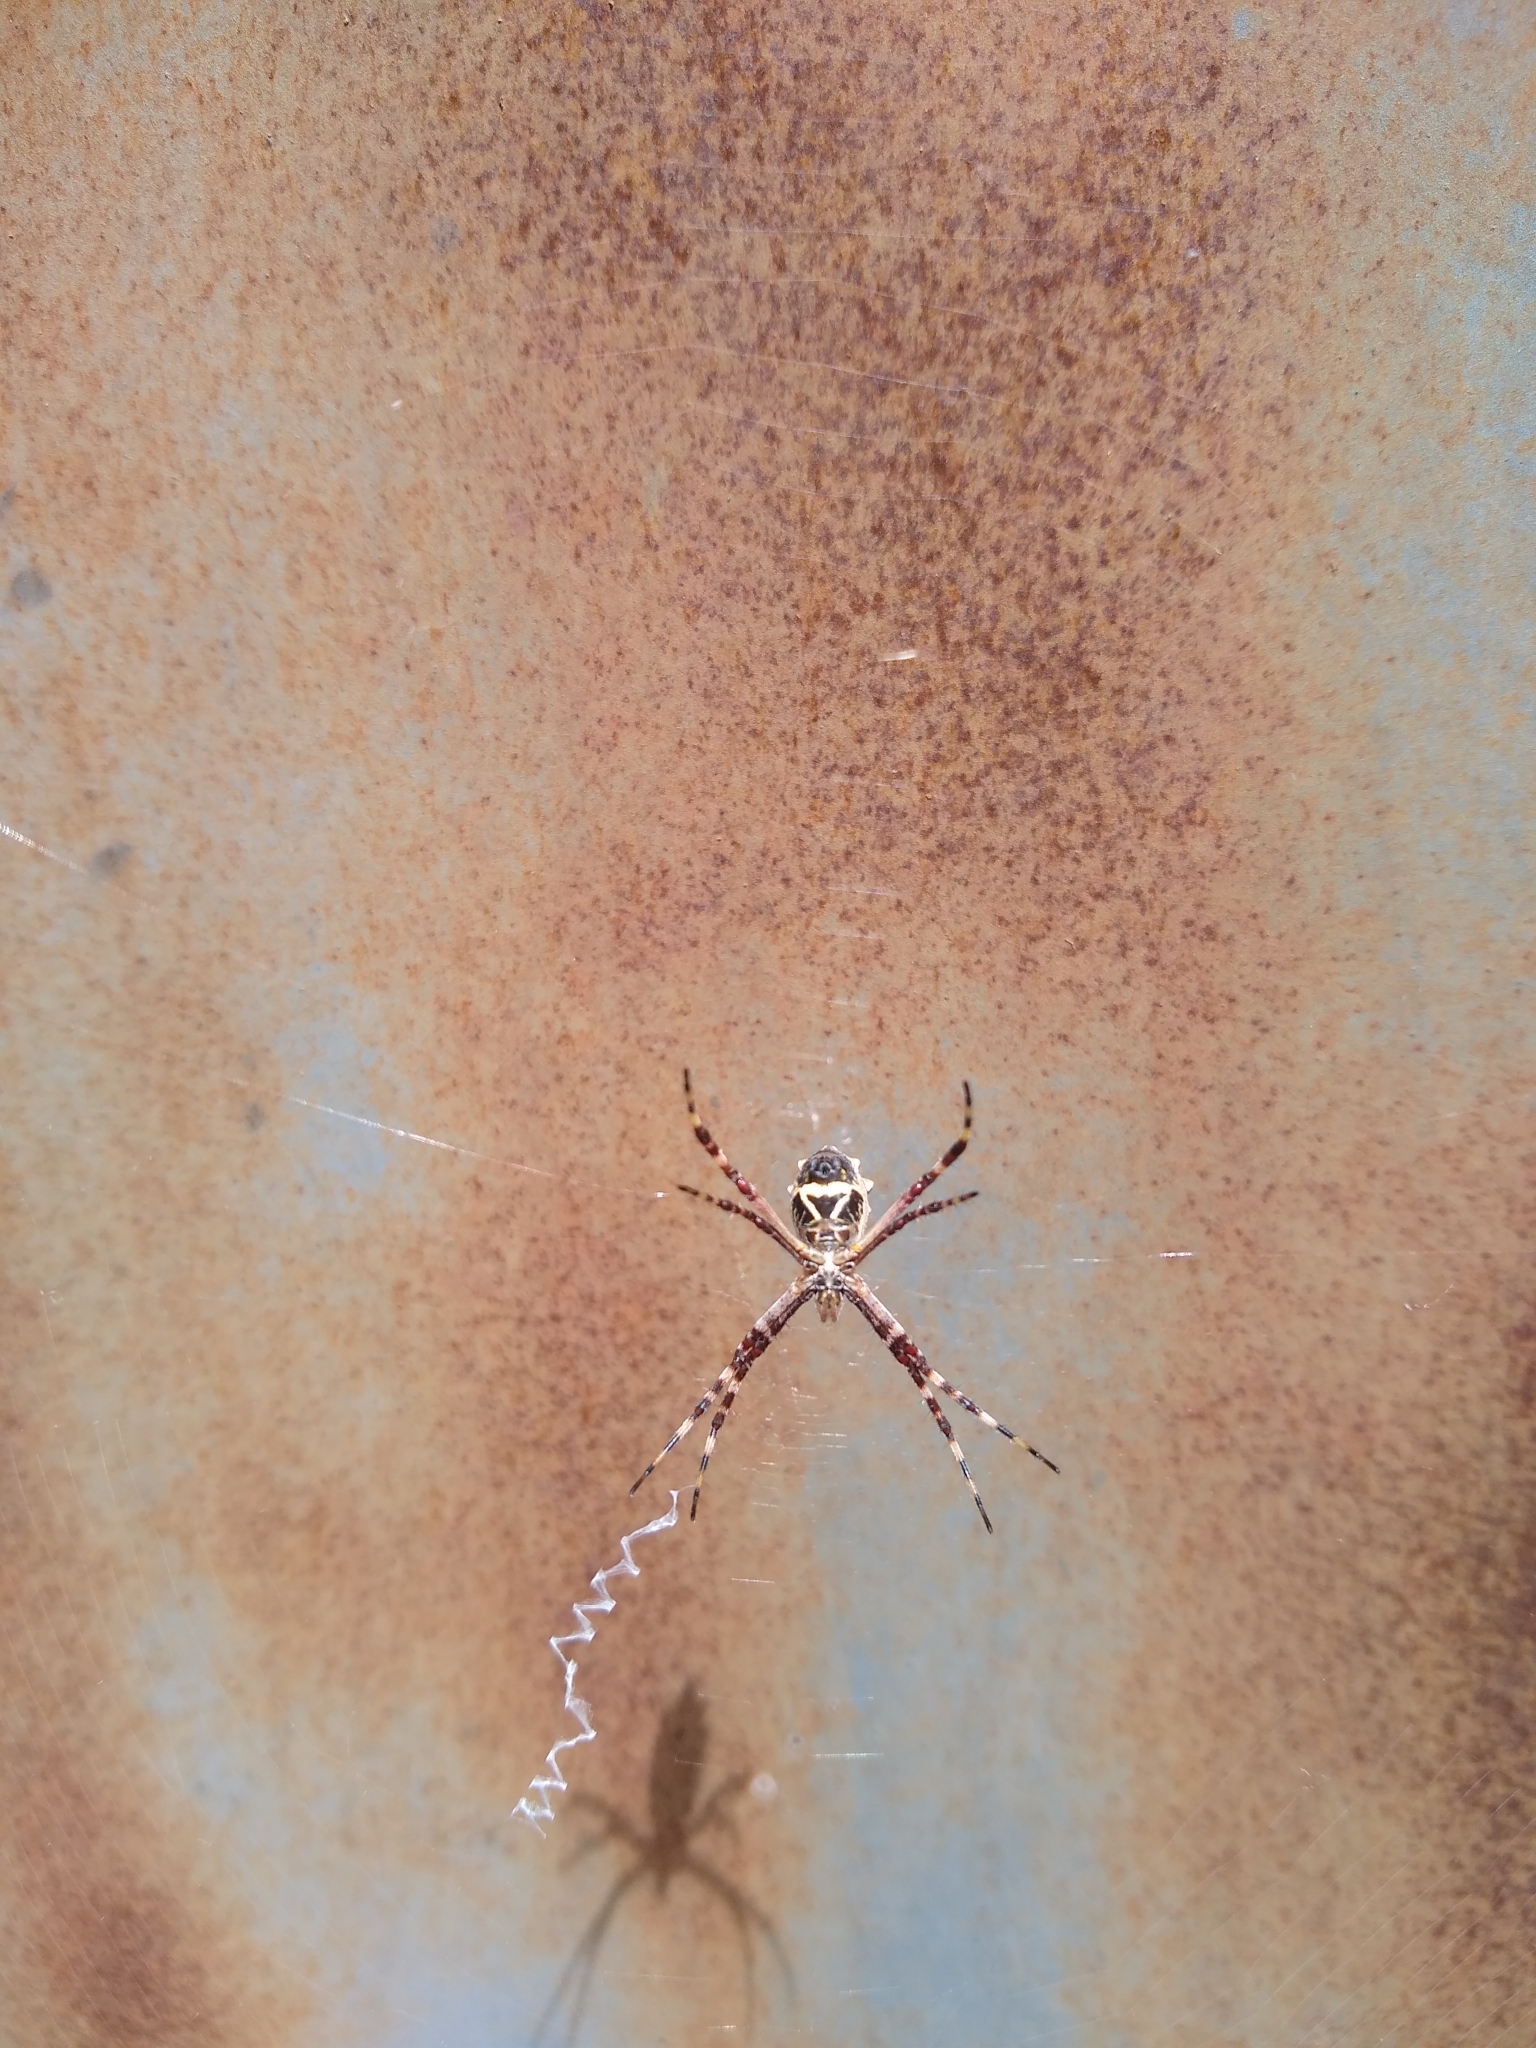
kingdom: Animalia
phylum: Arthropoda
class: Arachnida
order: Araneae
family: Araneidae
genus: Argiope
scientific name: Argiope argentata
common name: Orb weavers
